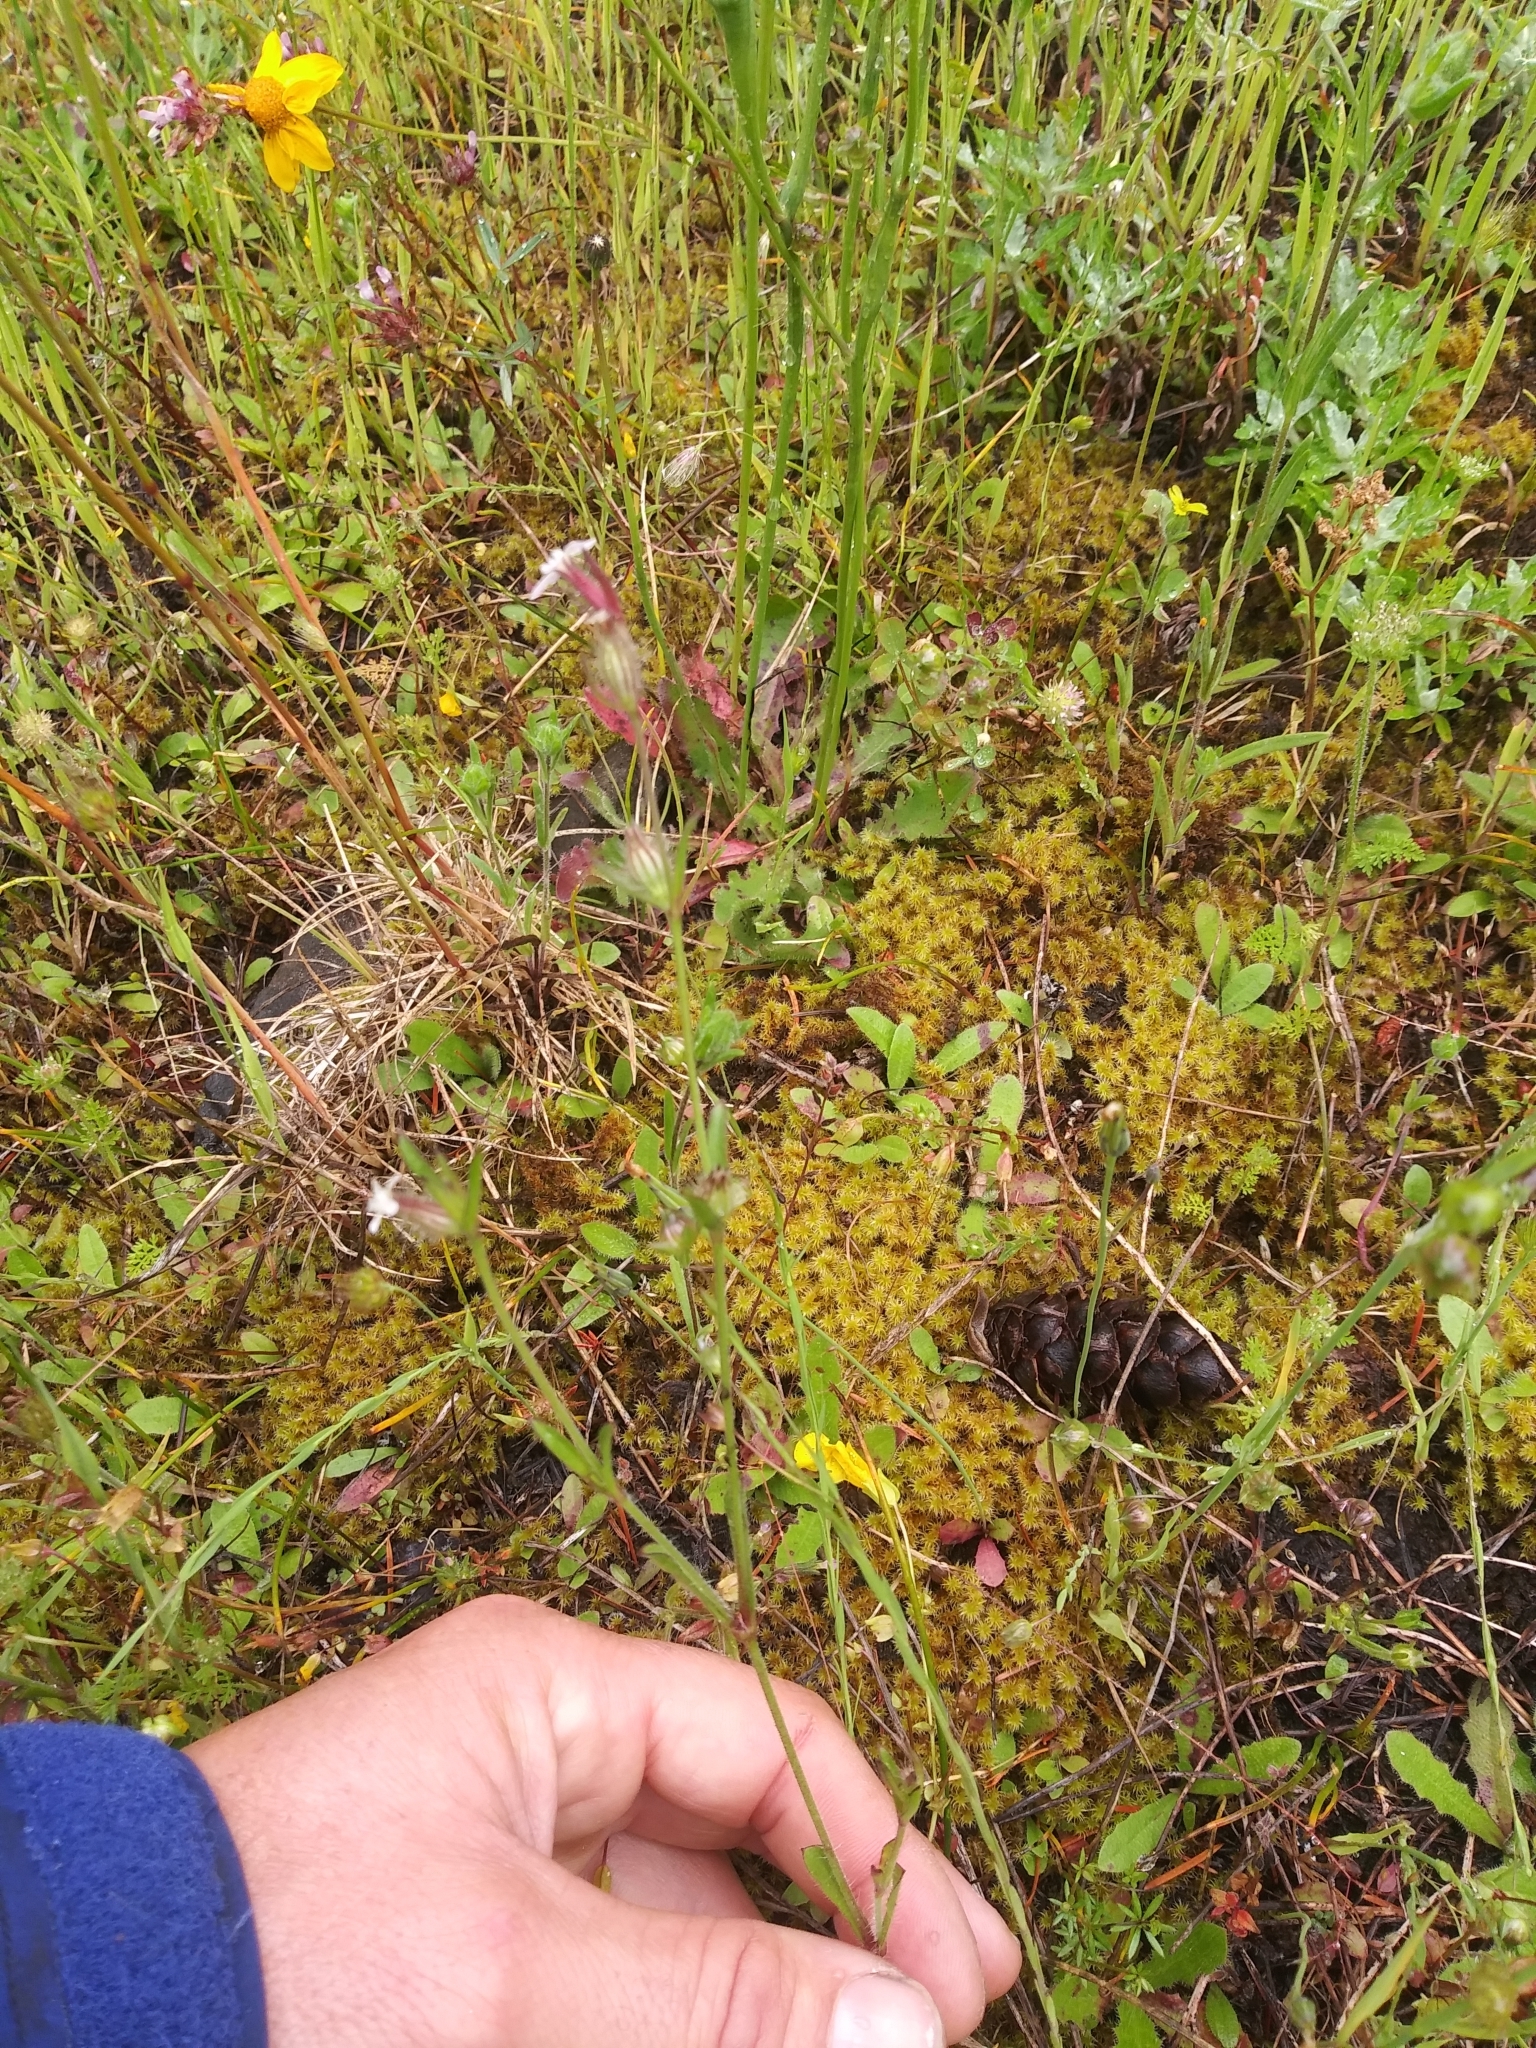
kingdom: Plantae
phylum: Tracheophyta
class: Magnoliopsida
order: Caryophyllales
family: Caryophyllaceae
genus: Silene
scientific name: Silene gallica
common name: Small-flowered catchfly
